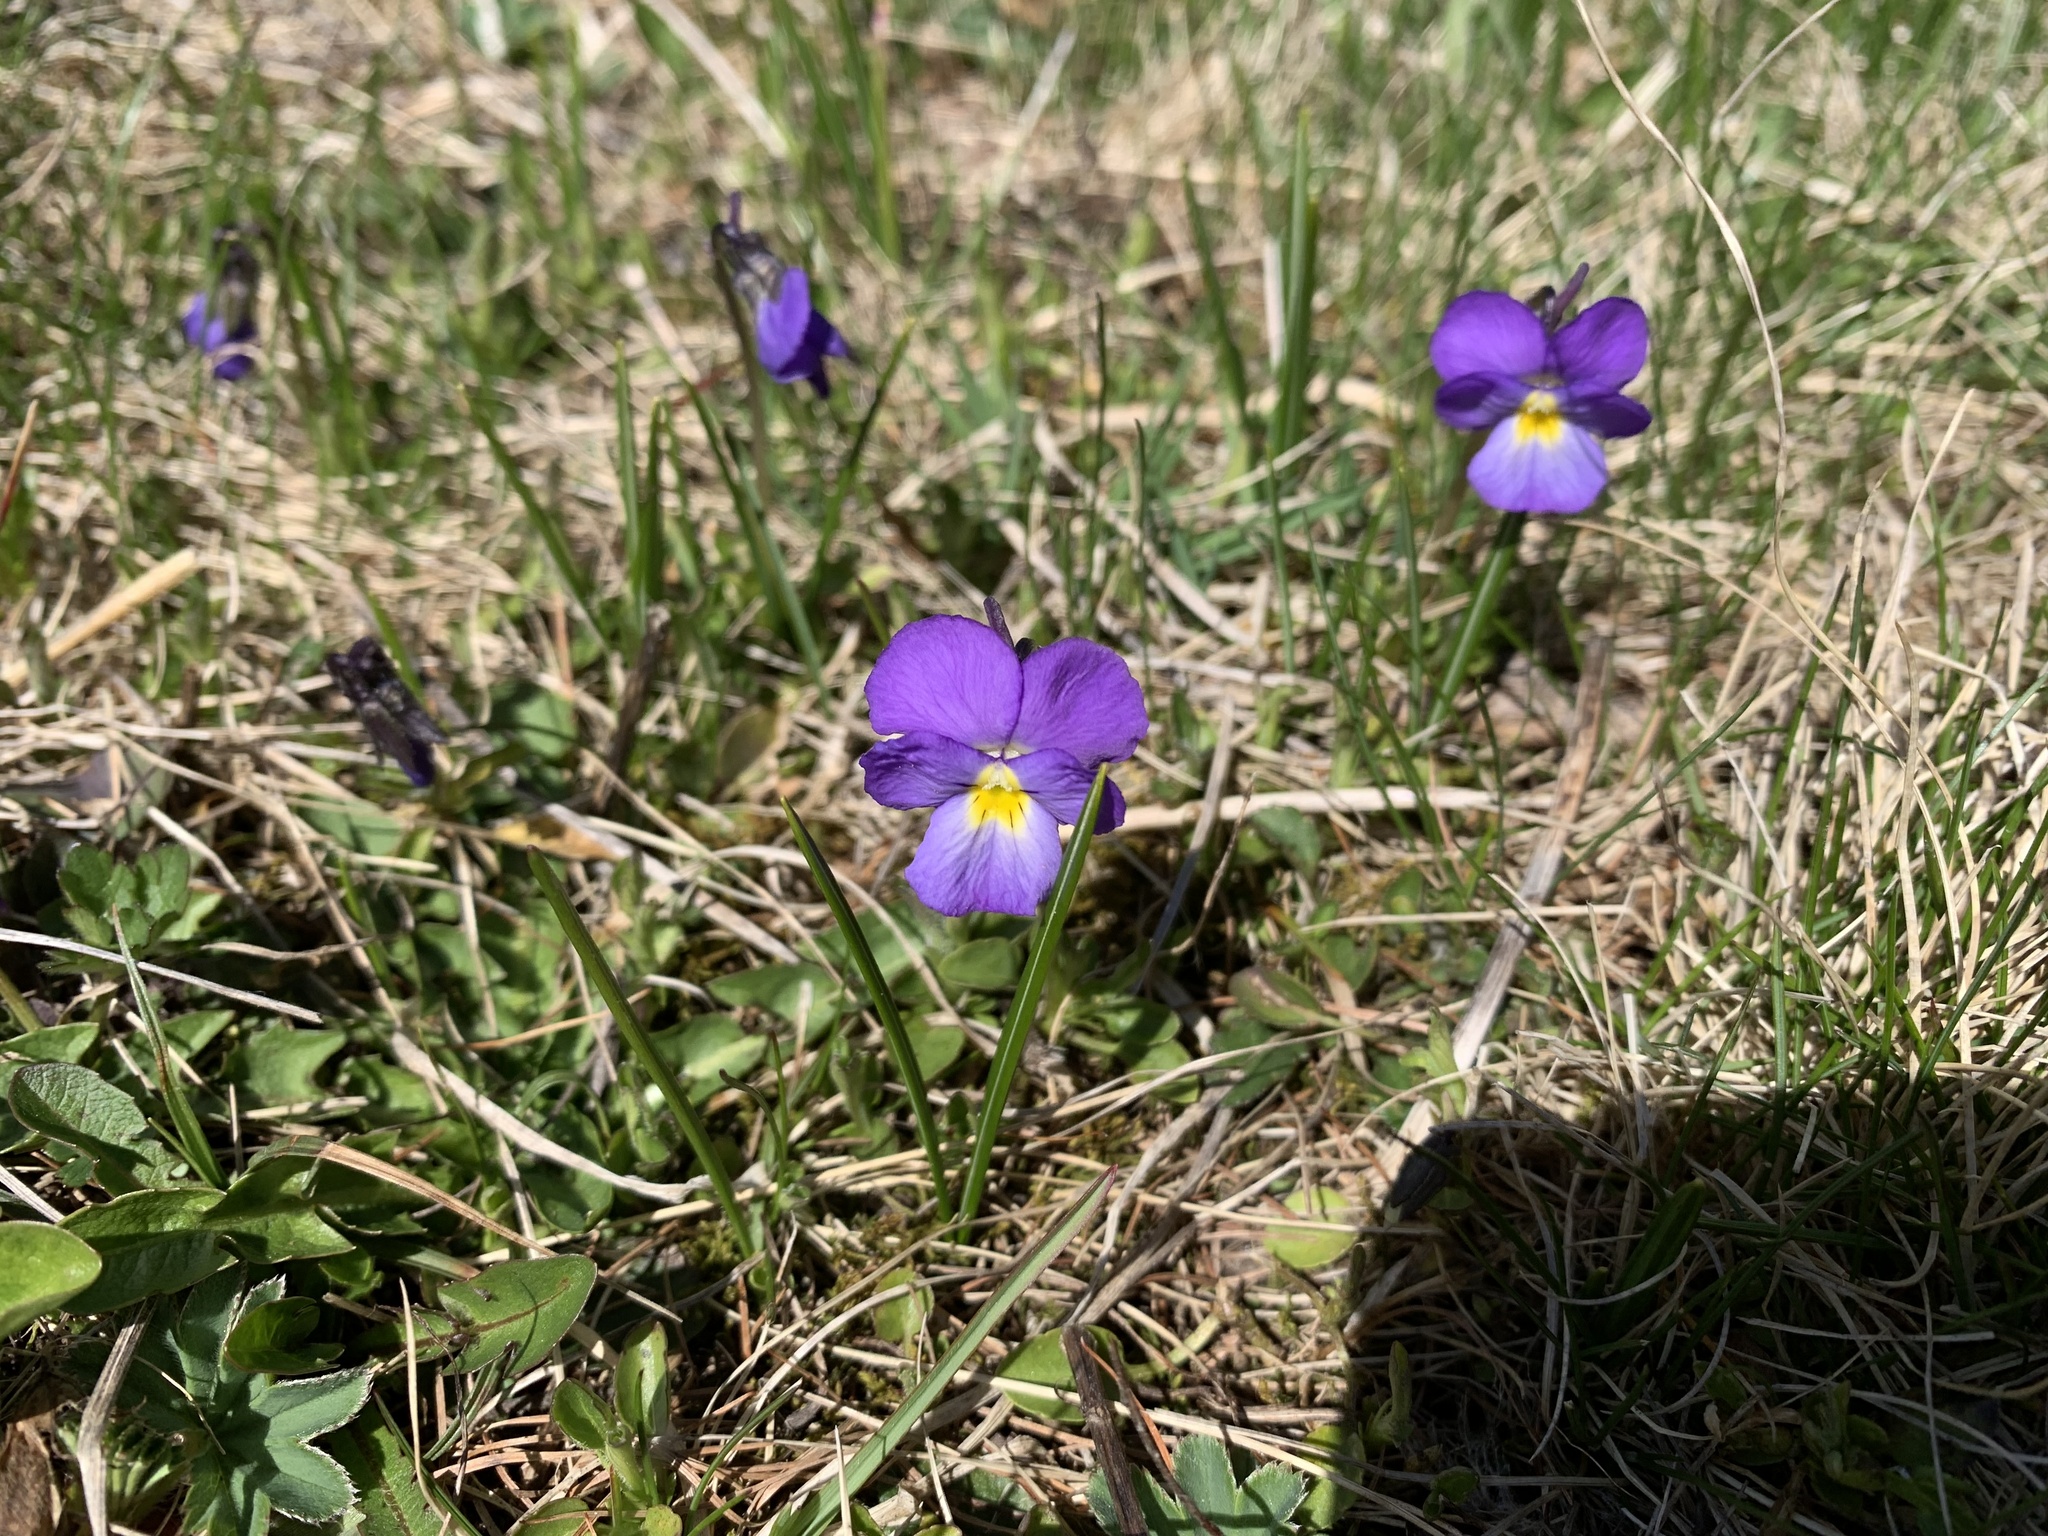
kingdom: Plantae
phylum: Tracheophyta
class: Magnoliopsida
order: Malpighiales
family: Violaceae
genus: Viola
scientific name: Viola calcarata
